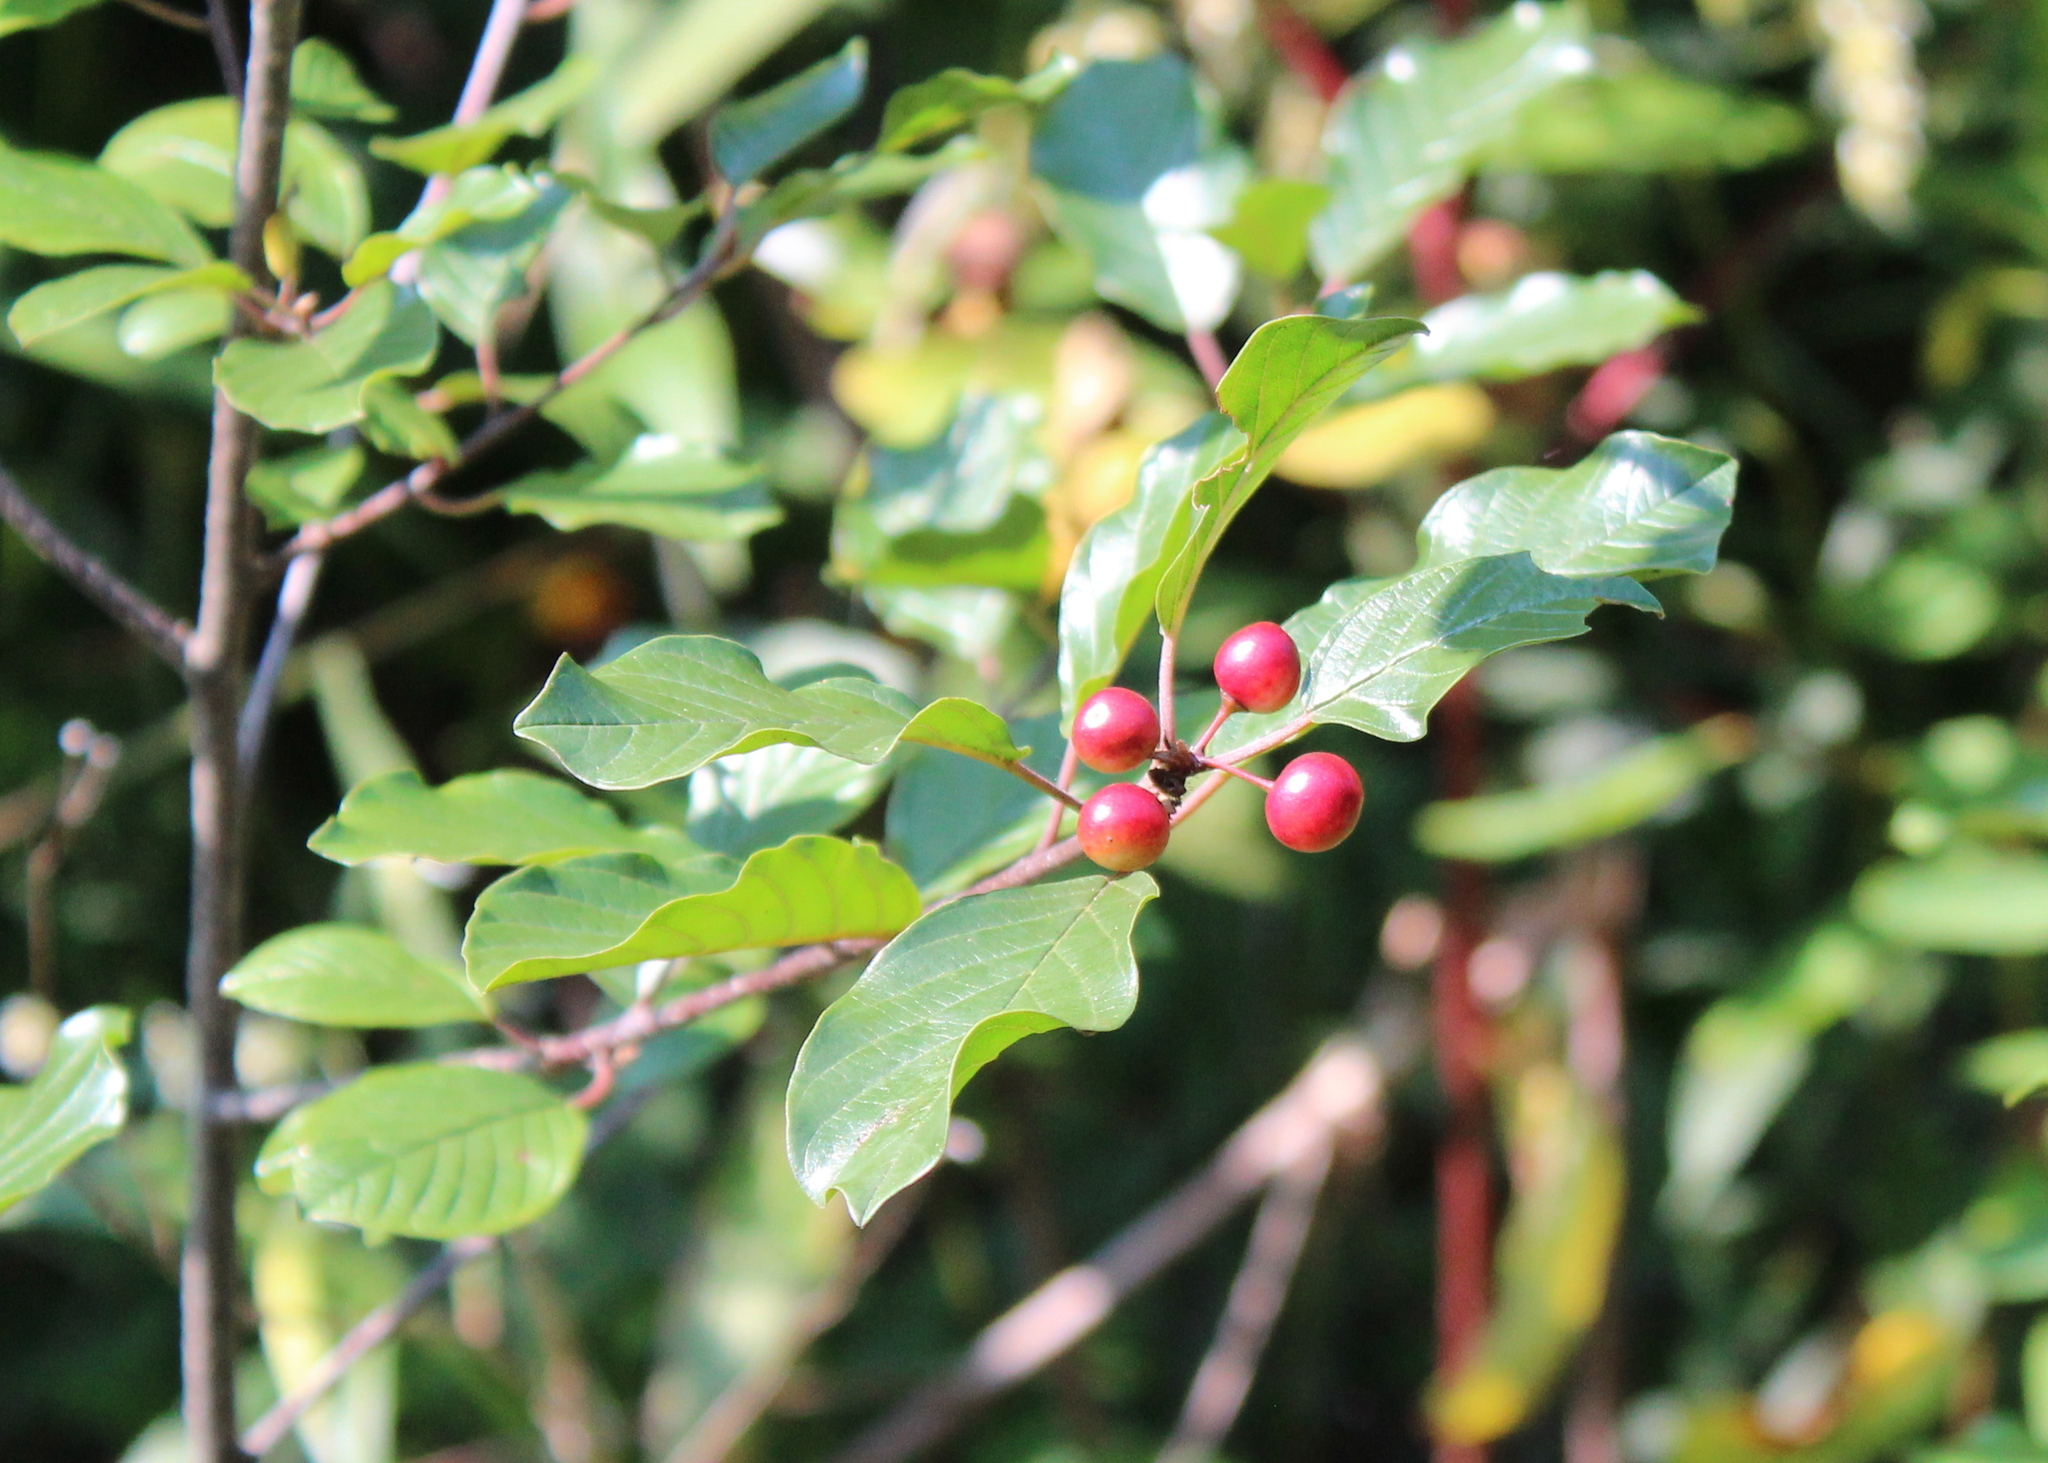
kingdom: Plantae
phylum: Tracheophyta
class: Magnoliopsida
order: Rosales
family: Rhamnaceae
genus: Frangula
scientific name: Frangula alnus
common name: Alder buckthorn
